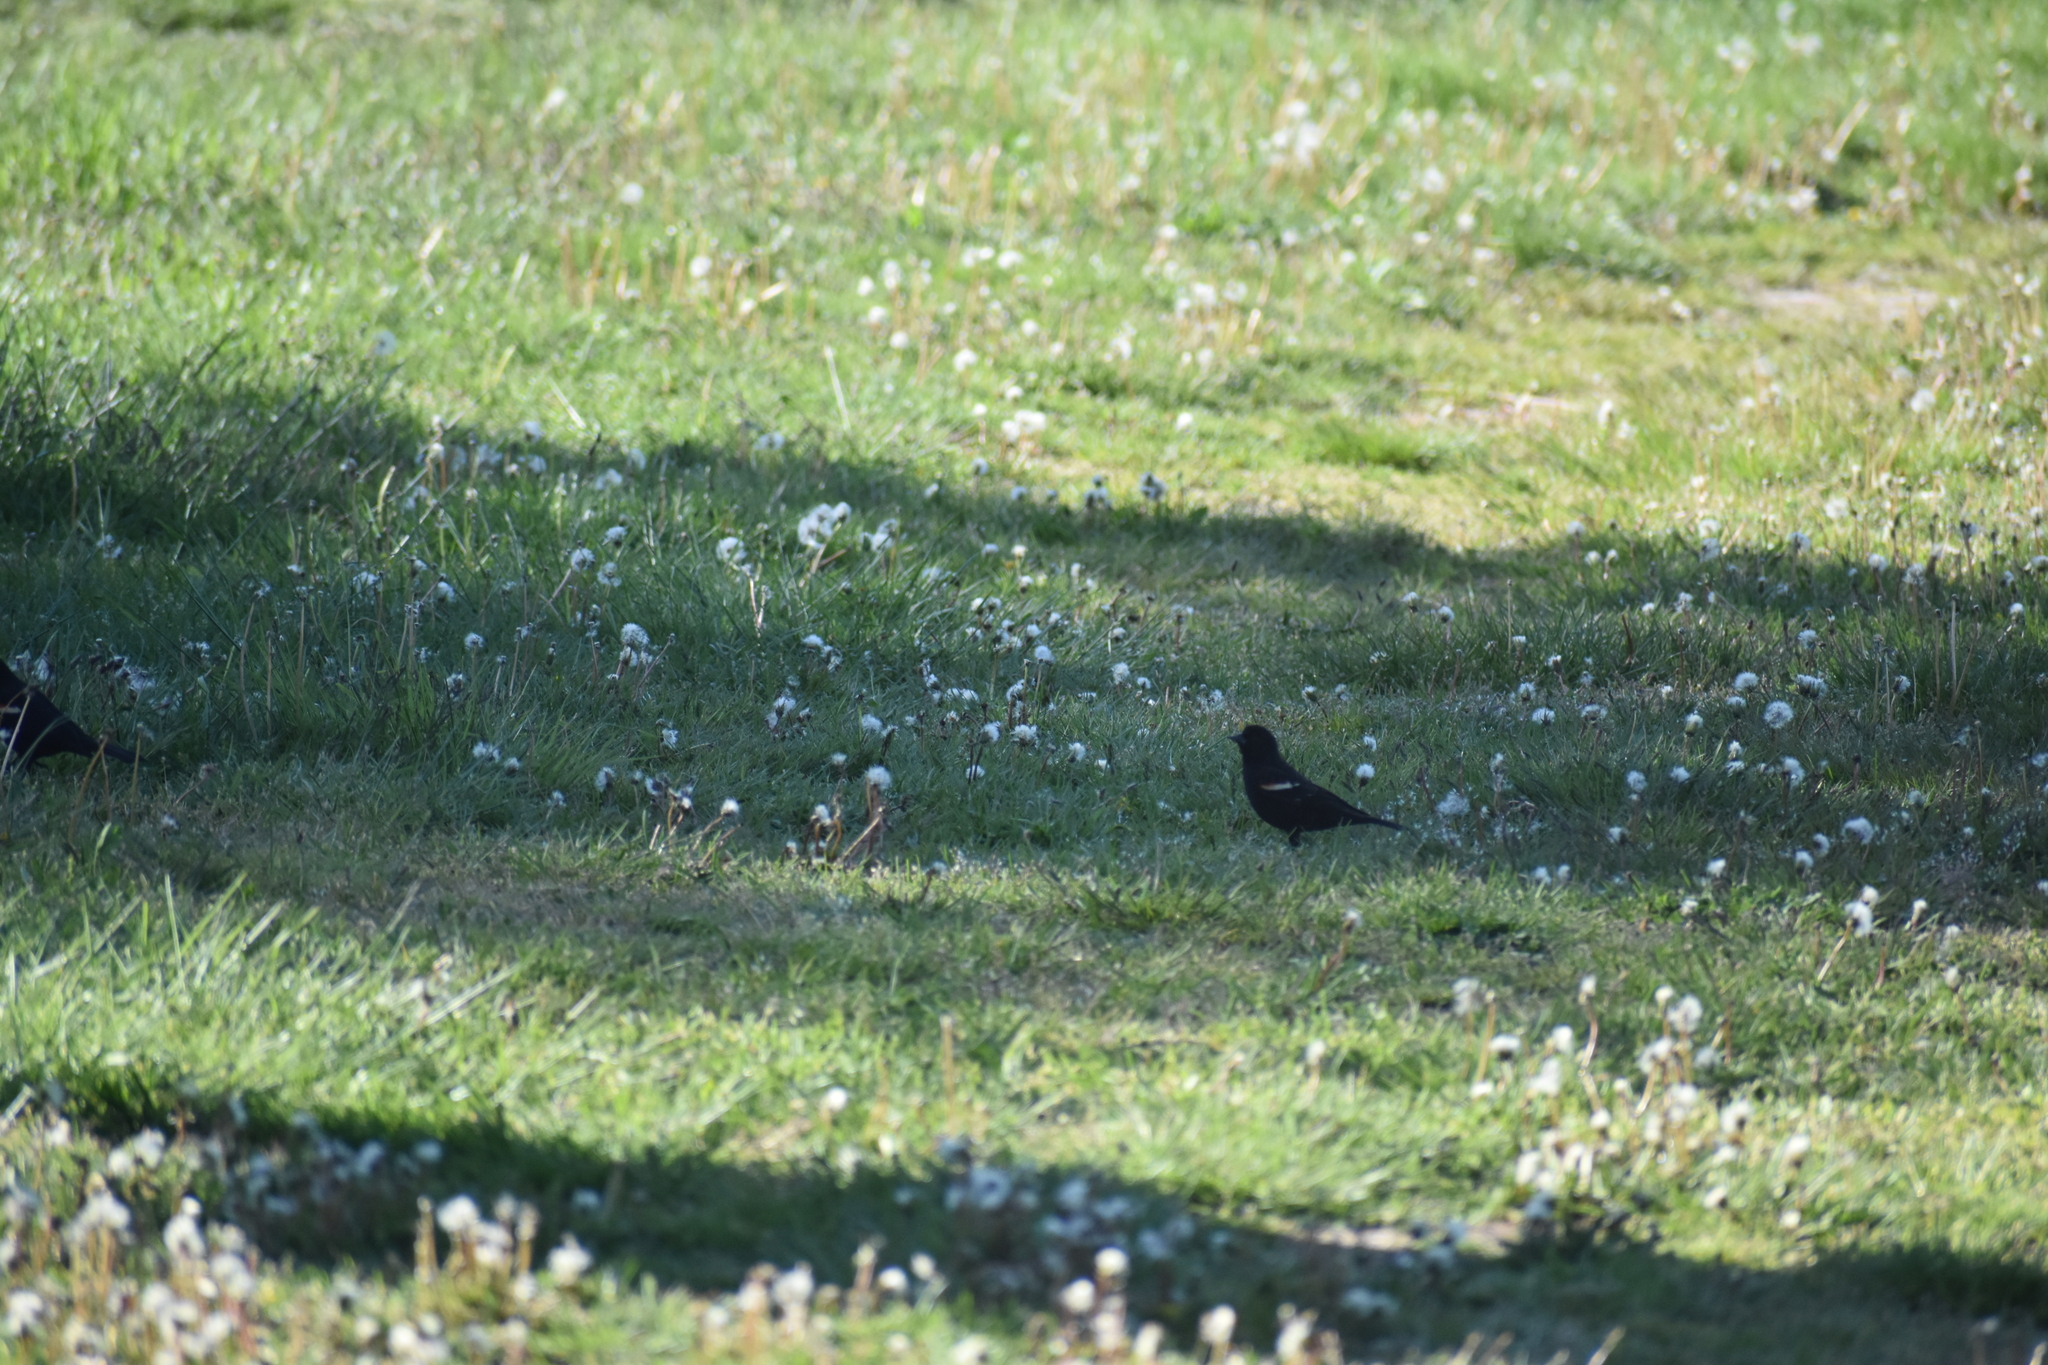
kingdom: Animalia
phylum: Chordata
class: Aves
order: Passeriformes
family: Icteridae
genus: Agelaius
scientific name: Agelaius phoeniceus
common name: Red-winged blackbird
